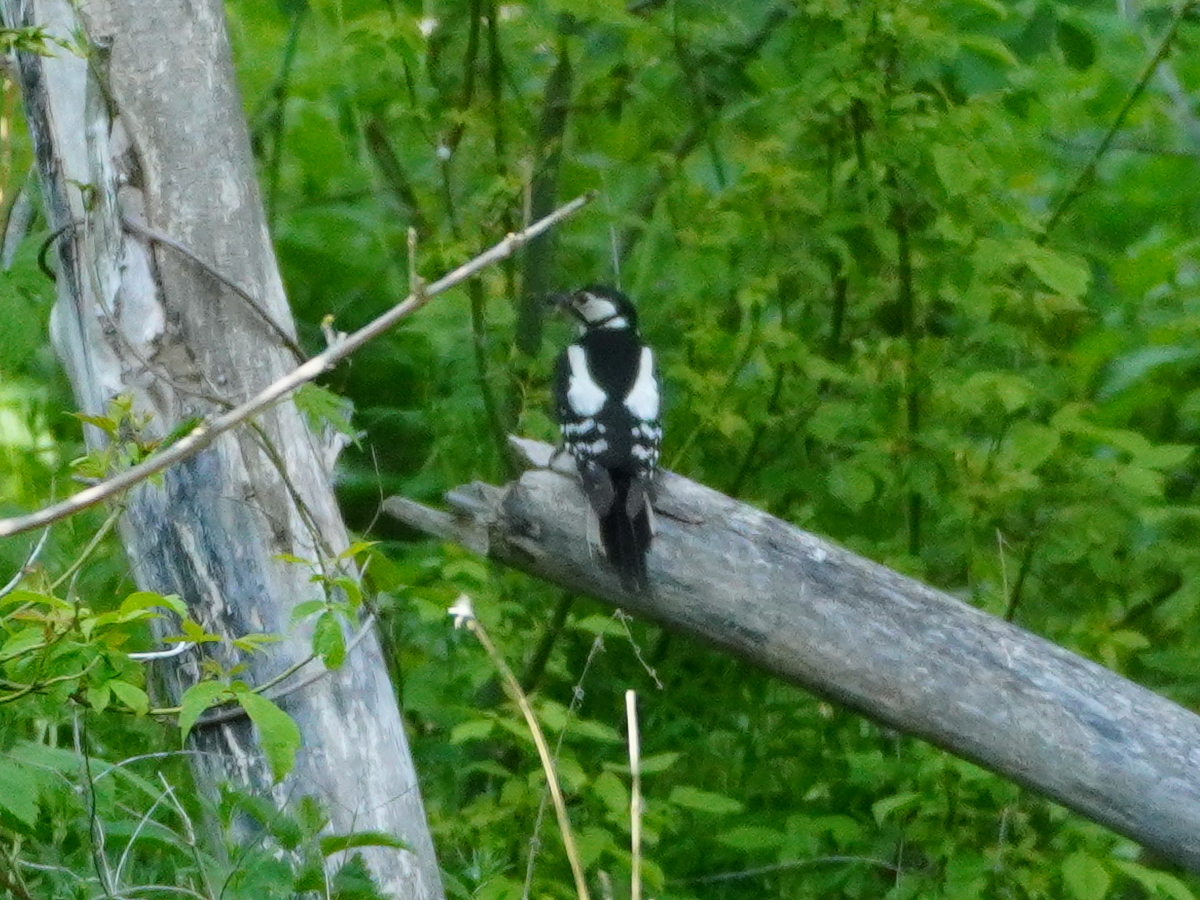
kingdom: Animalia
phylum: Chordata
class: Aves
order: Piciformes
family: Picidae
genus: Dendrocopos
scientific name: Dendrocopos major
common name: Great spotted woodpecker
